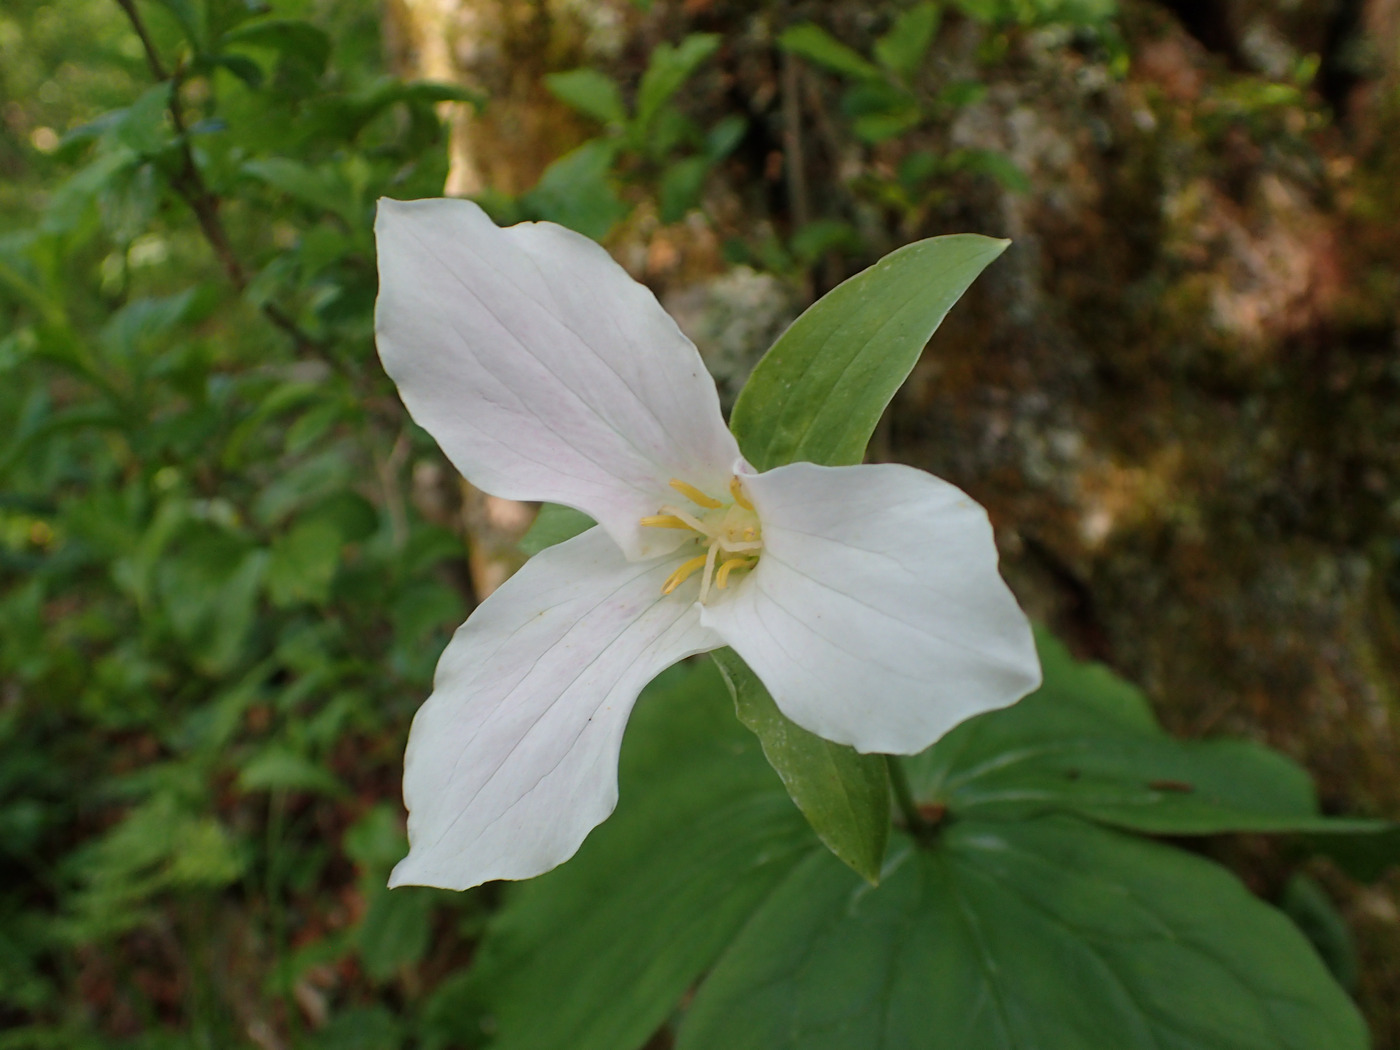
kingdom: Plantae
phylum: Tracheophyta
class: Liliopsida
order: Liliales
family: Melanthiaceae
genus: Trillium
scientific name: Trillium grandiflorum
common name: Great white trillium
